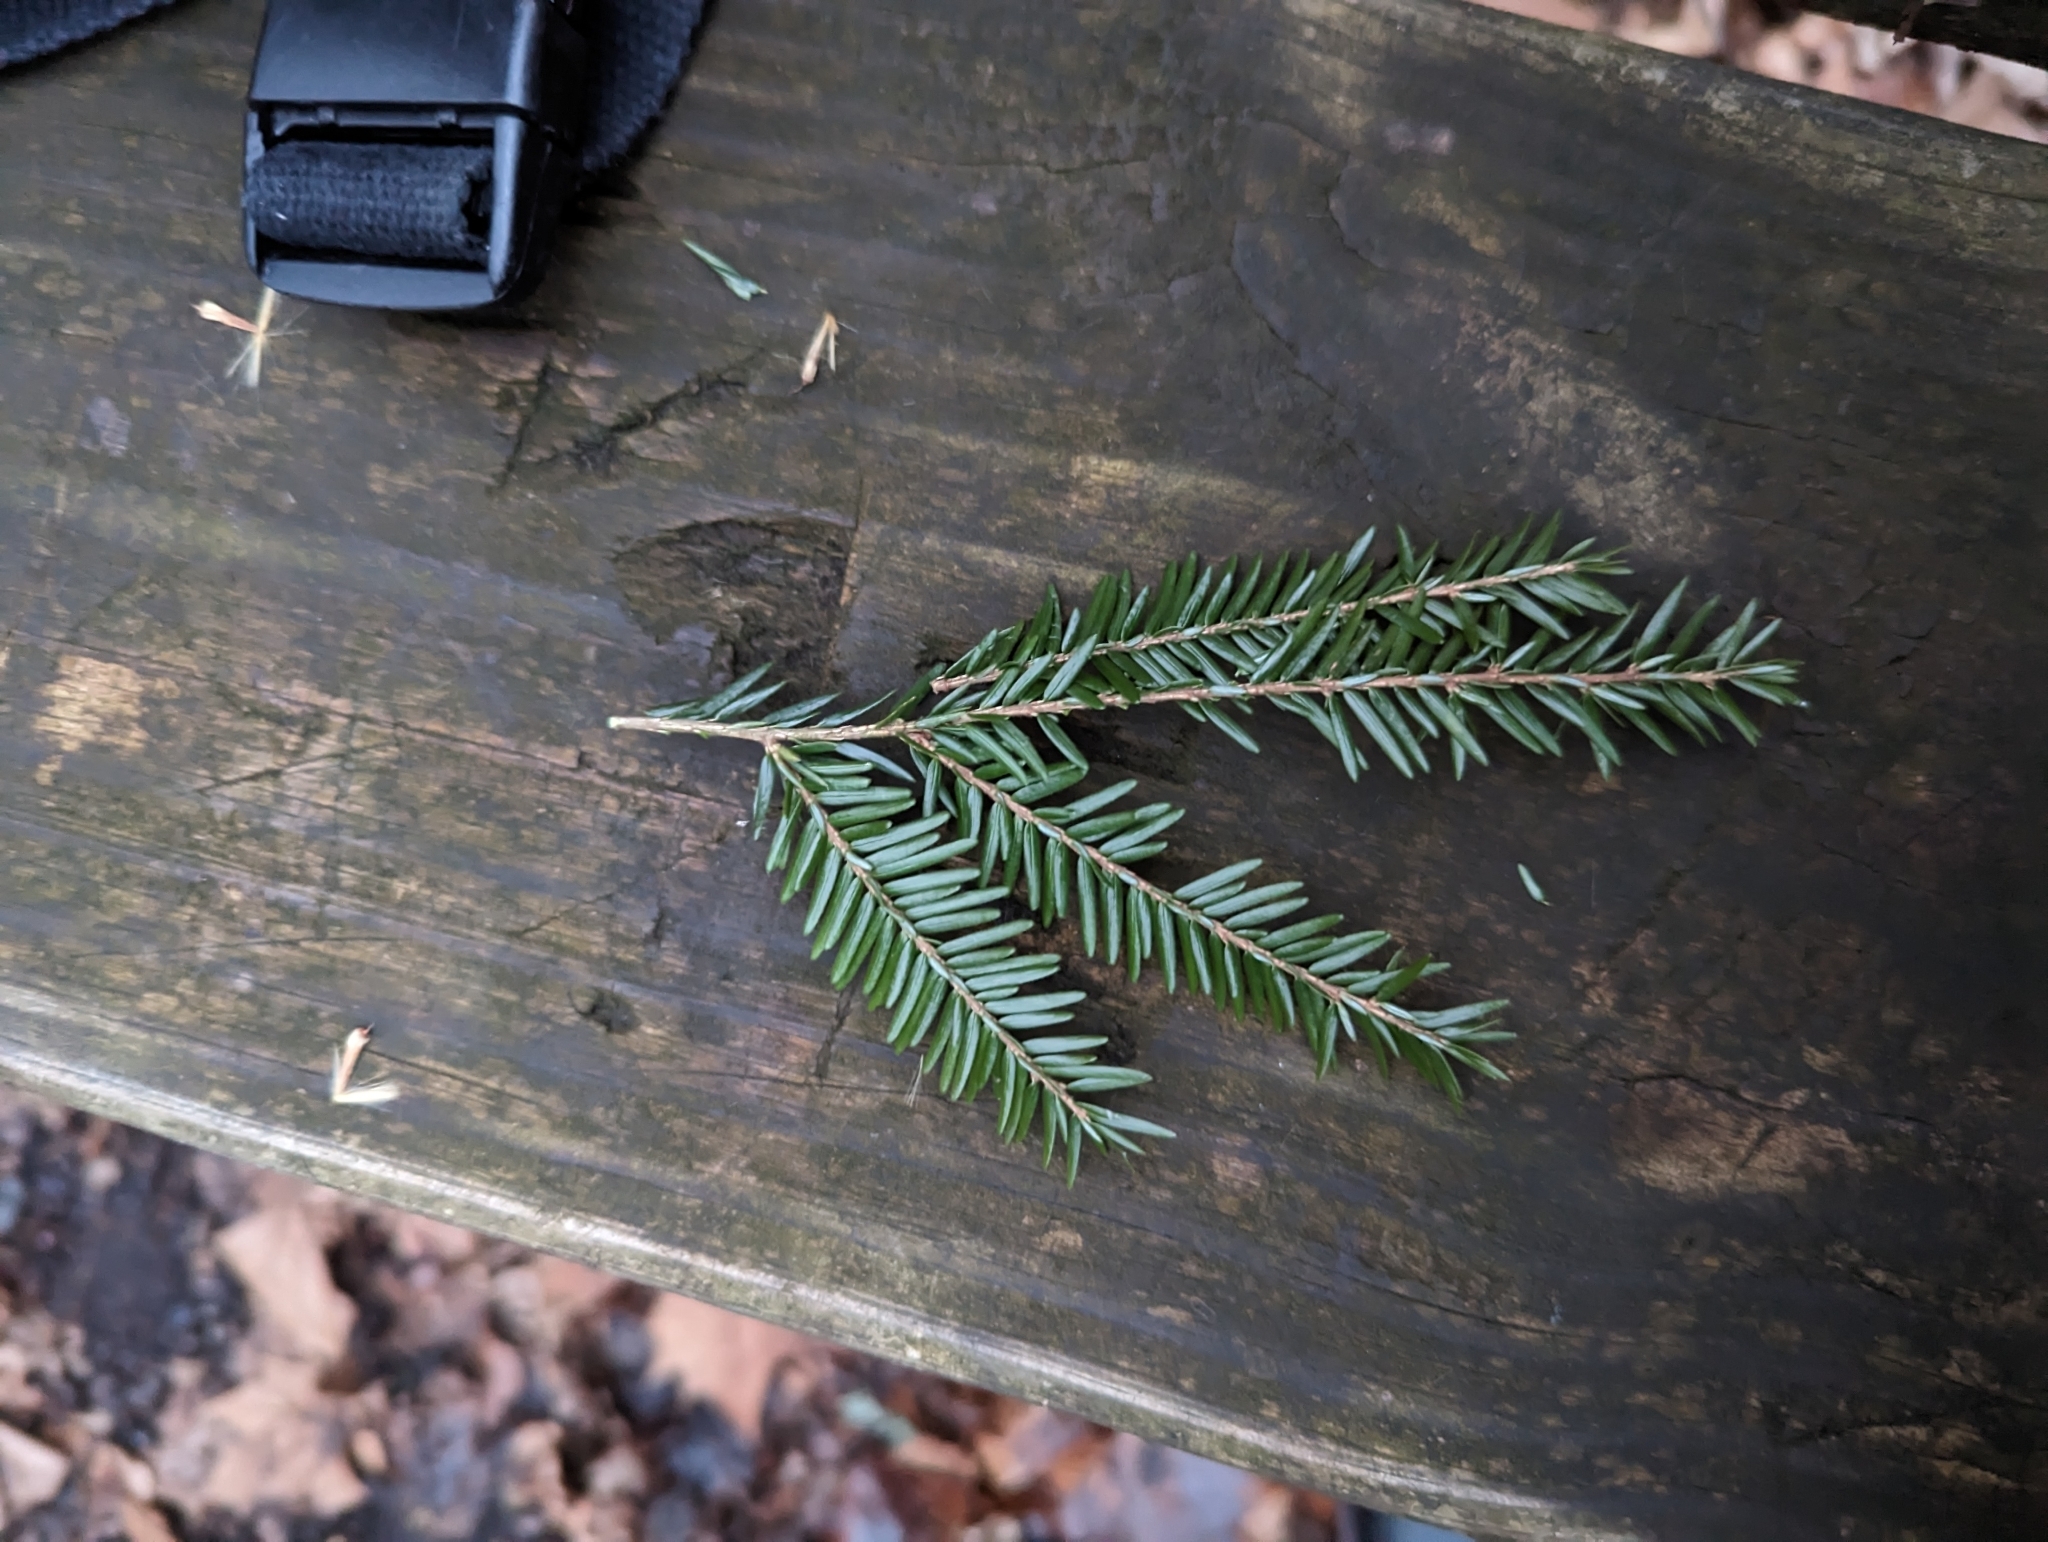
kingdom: Plantae
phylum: Tracheophyta
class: Pinopsida
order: Pinales
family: Pinaceae
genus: Tsuga
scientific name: Tsuga canadensis
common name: Eastern hemlock
